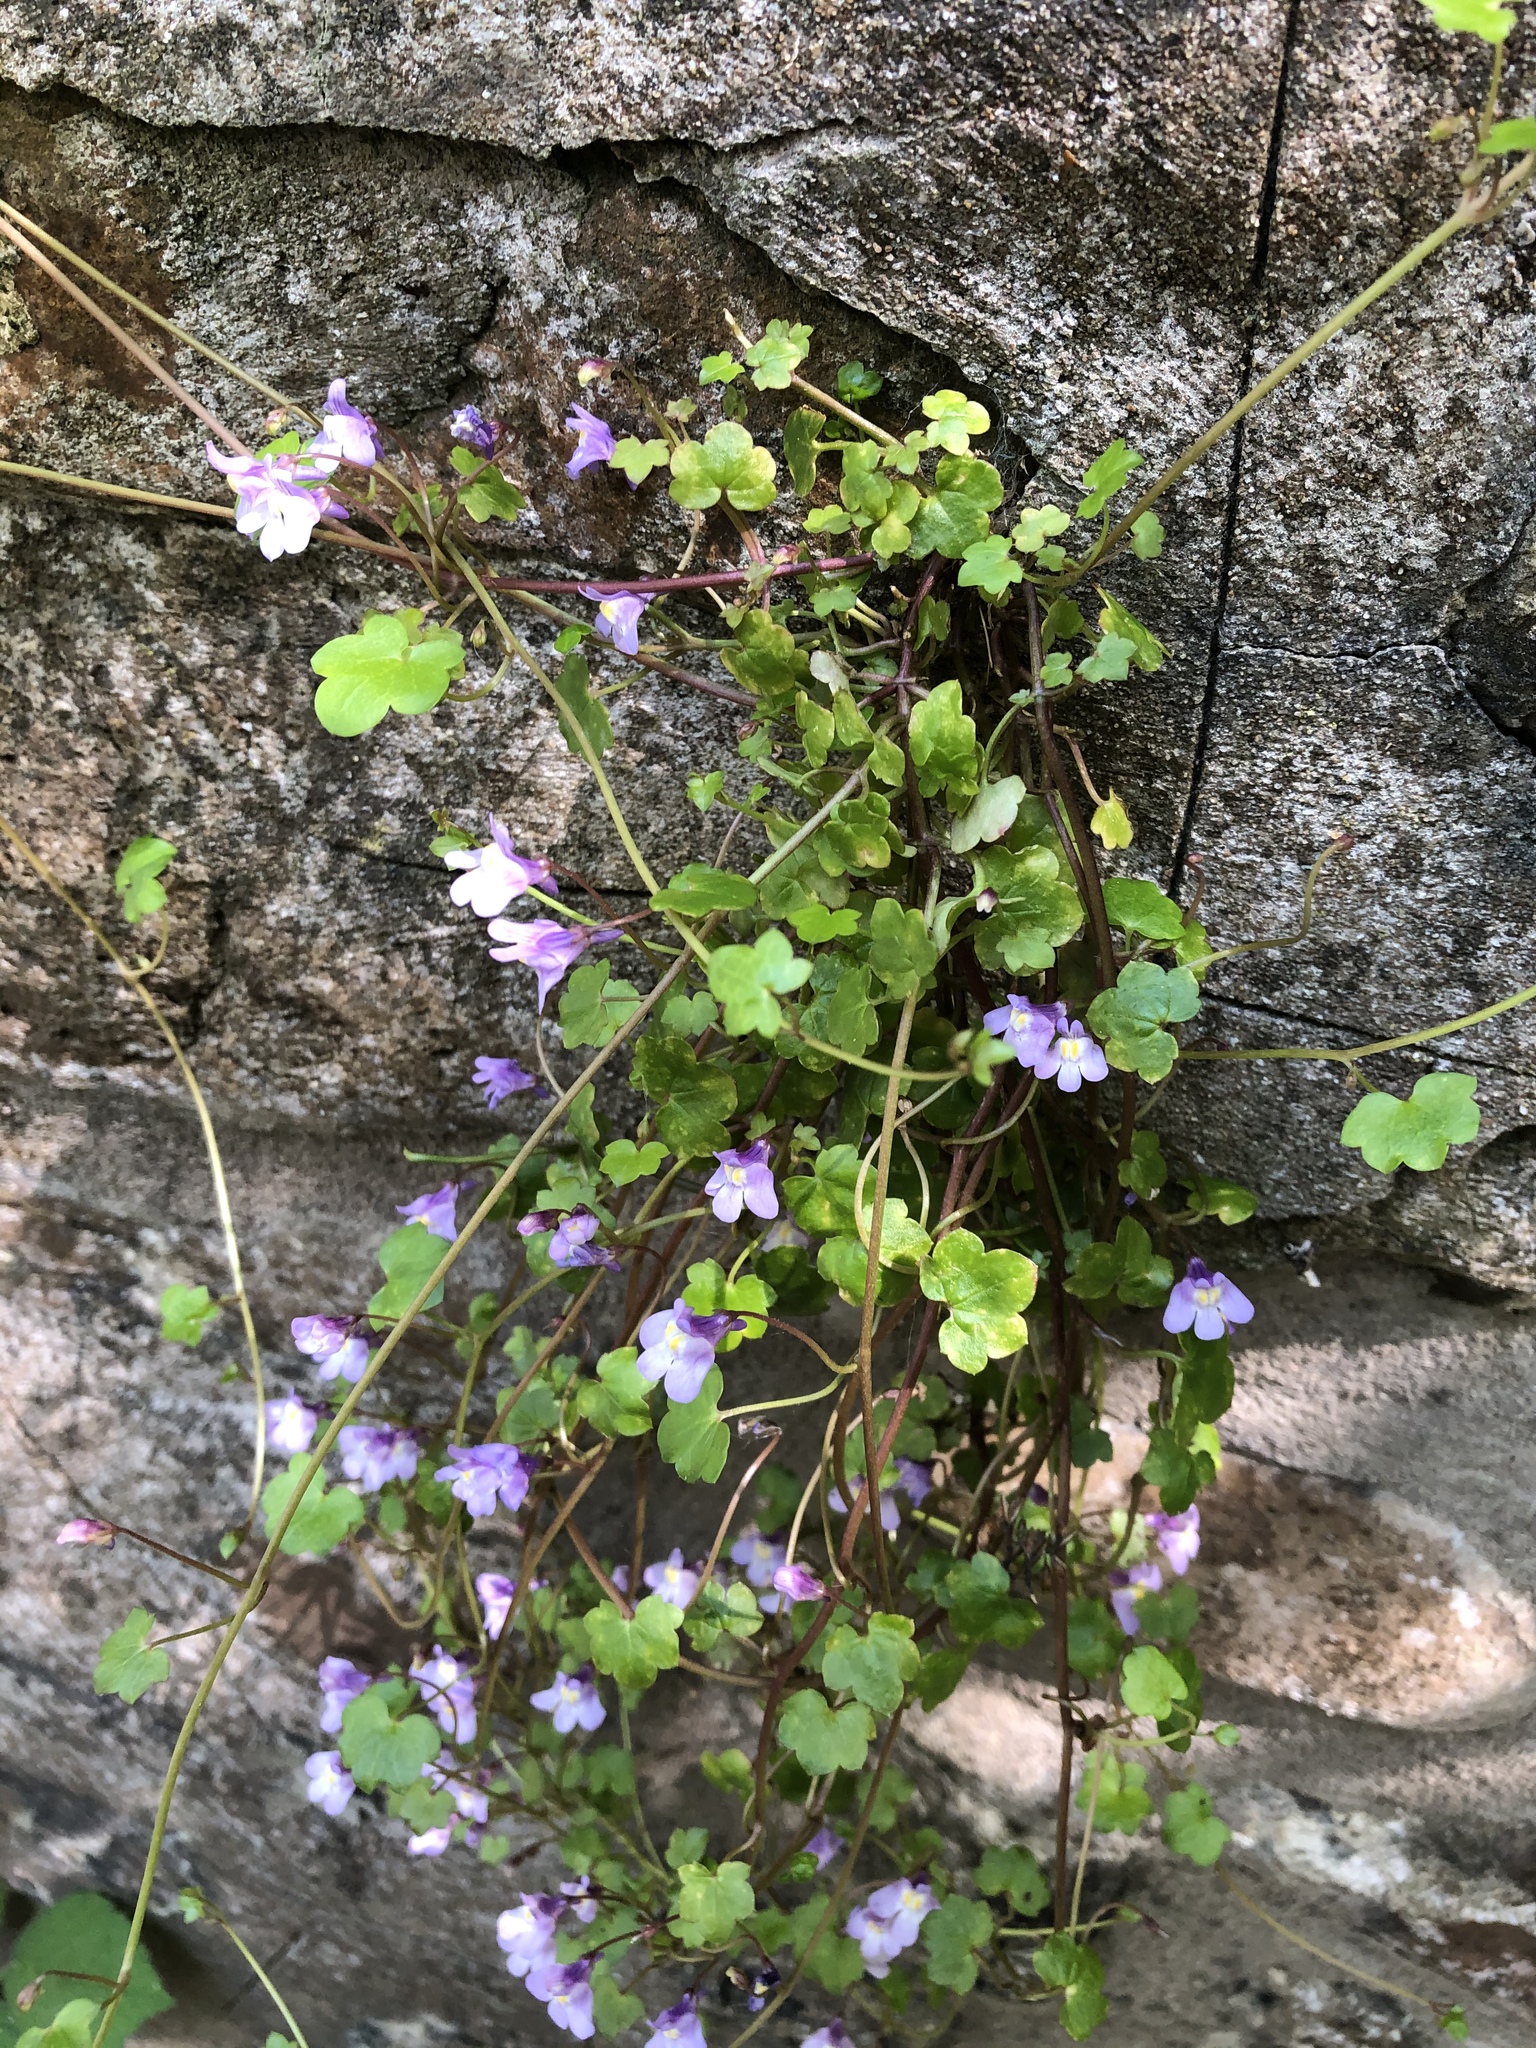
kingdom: Plantae
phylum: Tracheophyta
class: Magnoliopsida
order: Lamiales
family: Plantaginaceae
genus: Cymbalaria
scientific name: Cymbalaria muralis
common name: Ivy-leaved toadflax
